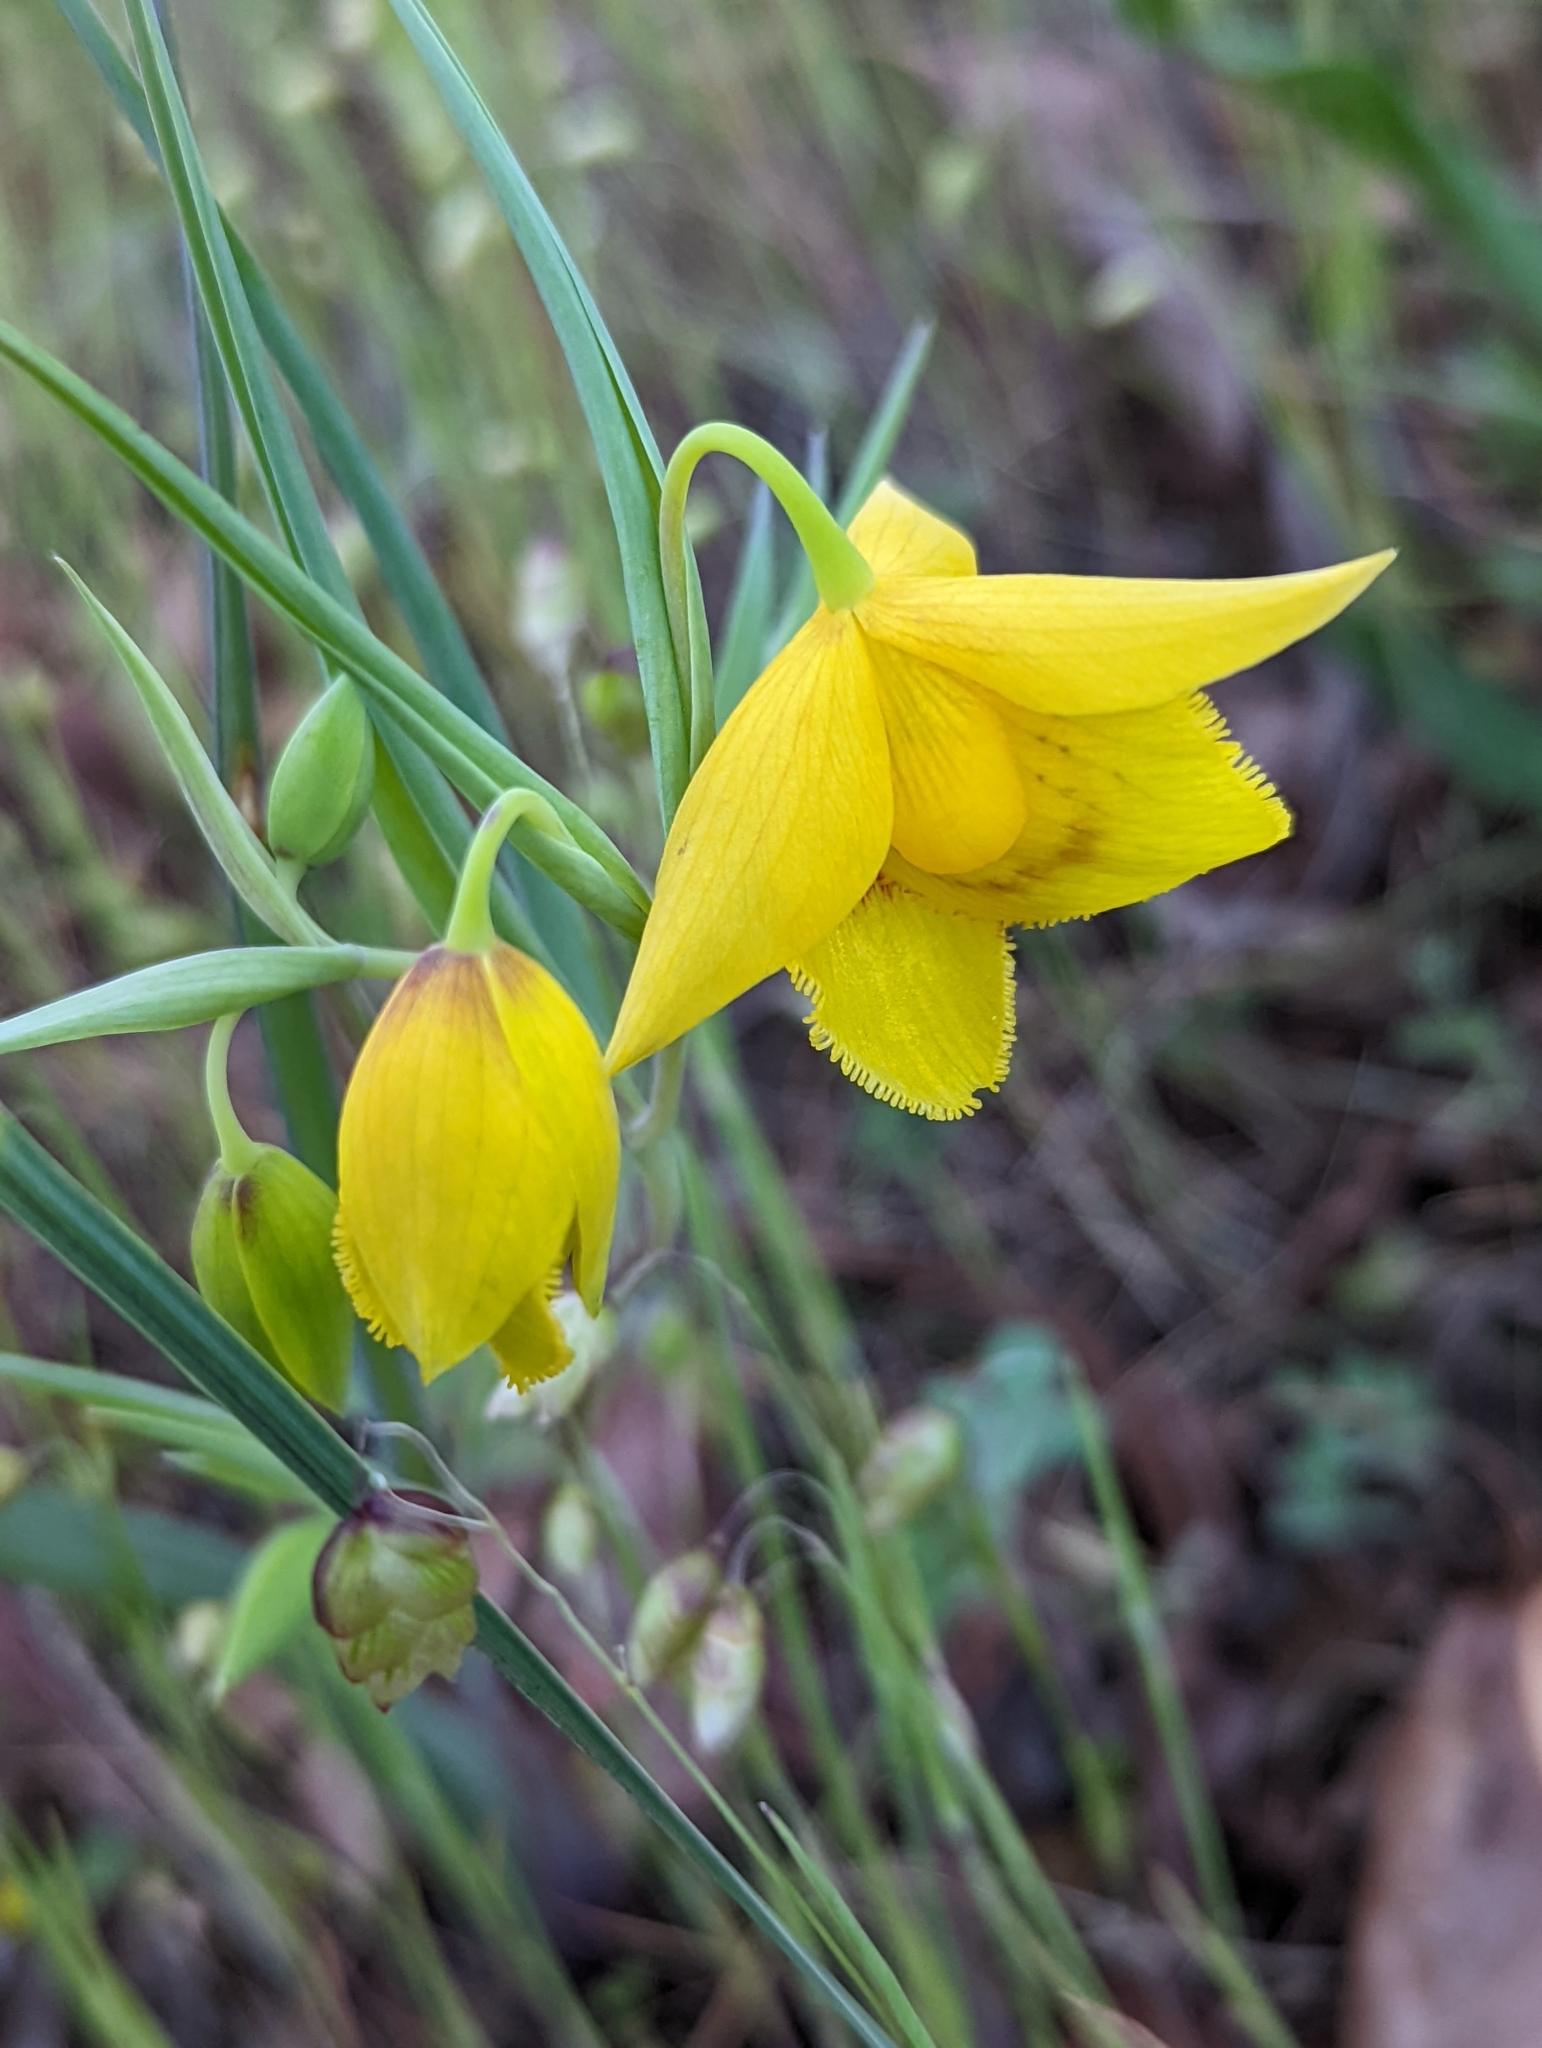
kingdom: Plantae
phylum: Tracheophyta
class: Liliopsida
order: Liliales
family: Liliaceae
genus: Calochortus
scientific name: Calochortus amabilis
